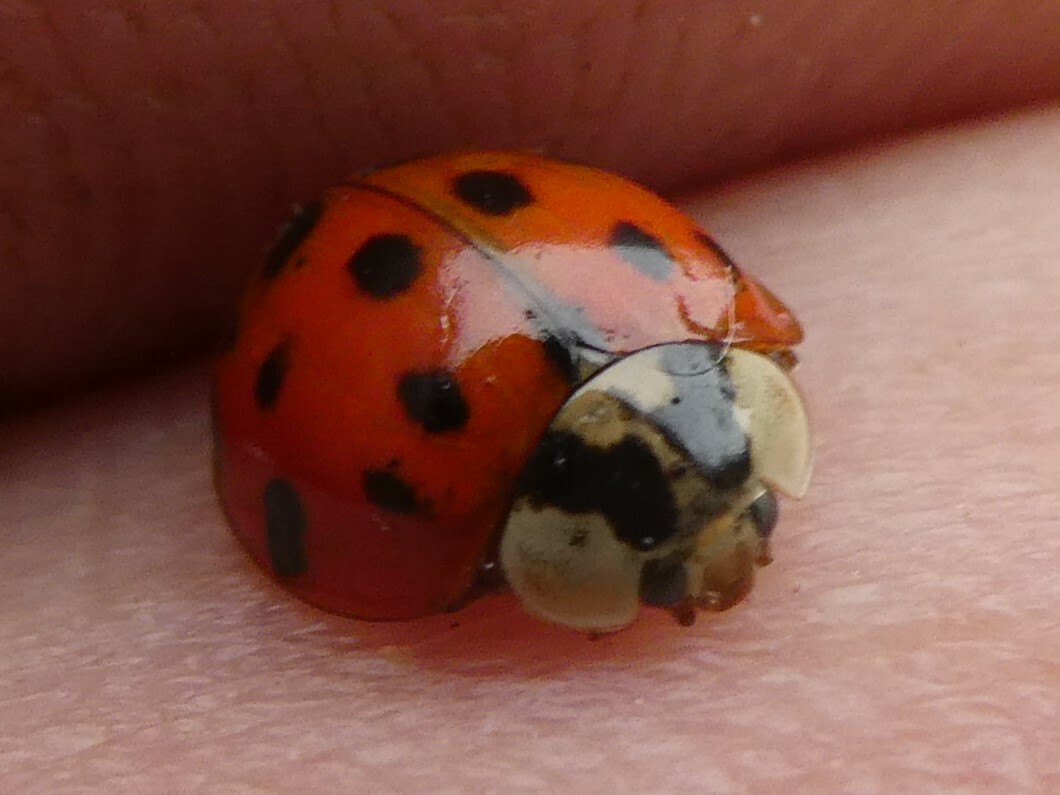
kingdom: Animalia
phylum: Arthropoda
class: Insecta
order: Coleoptera
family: Coccinellidae
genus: Harmonia
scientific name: Harmonia axyridis
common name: Harlequin ladybird
